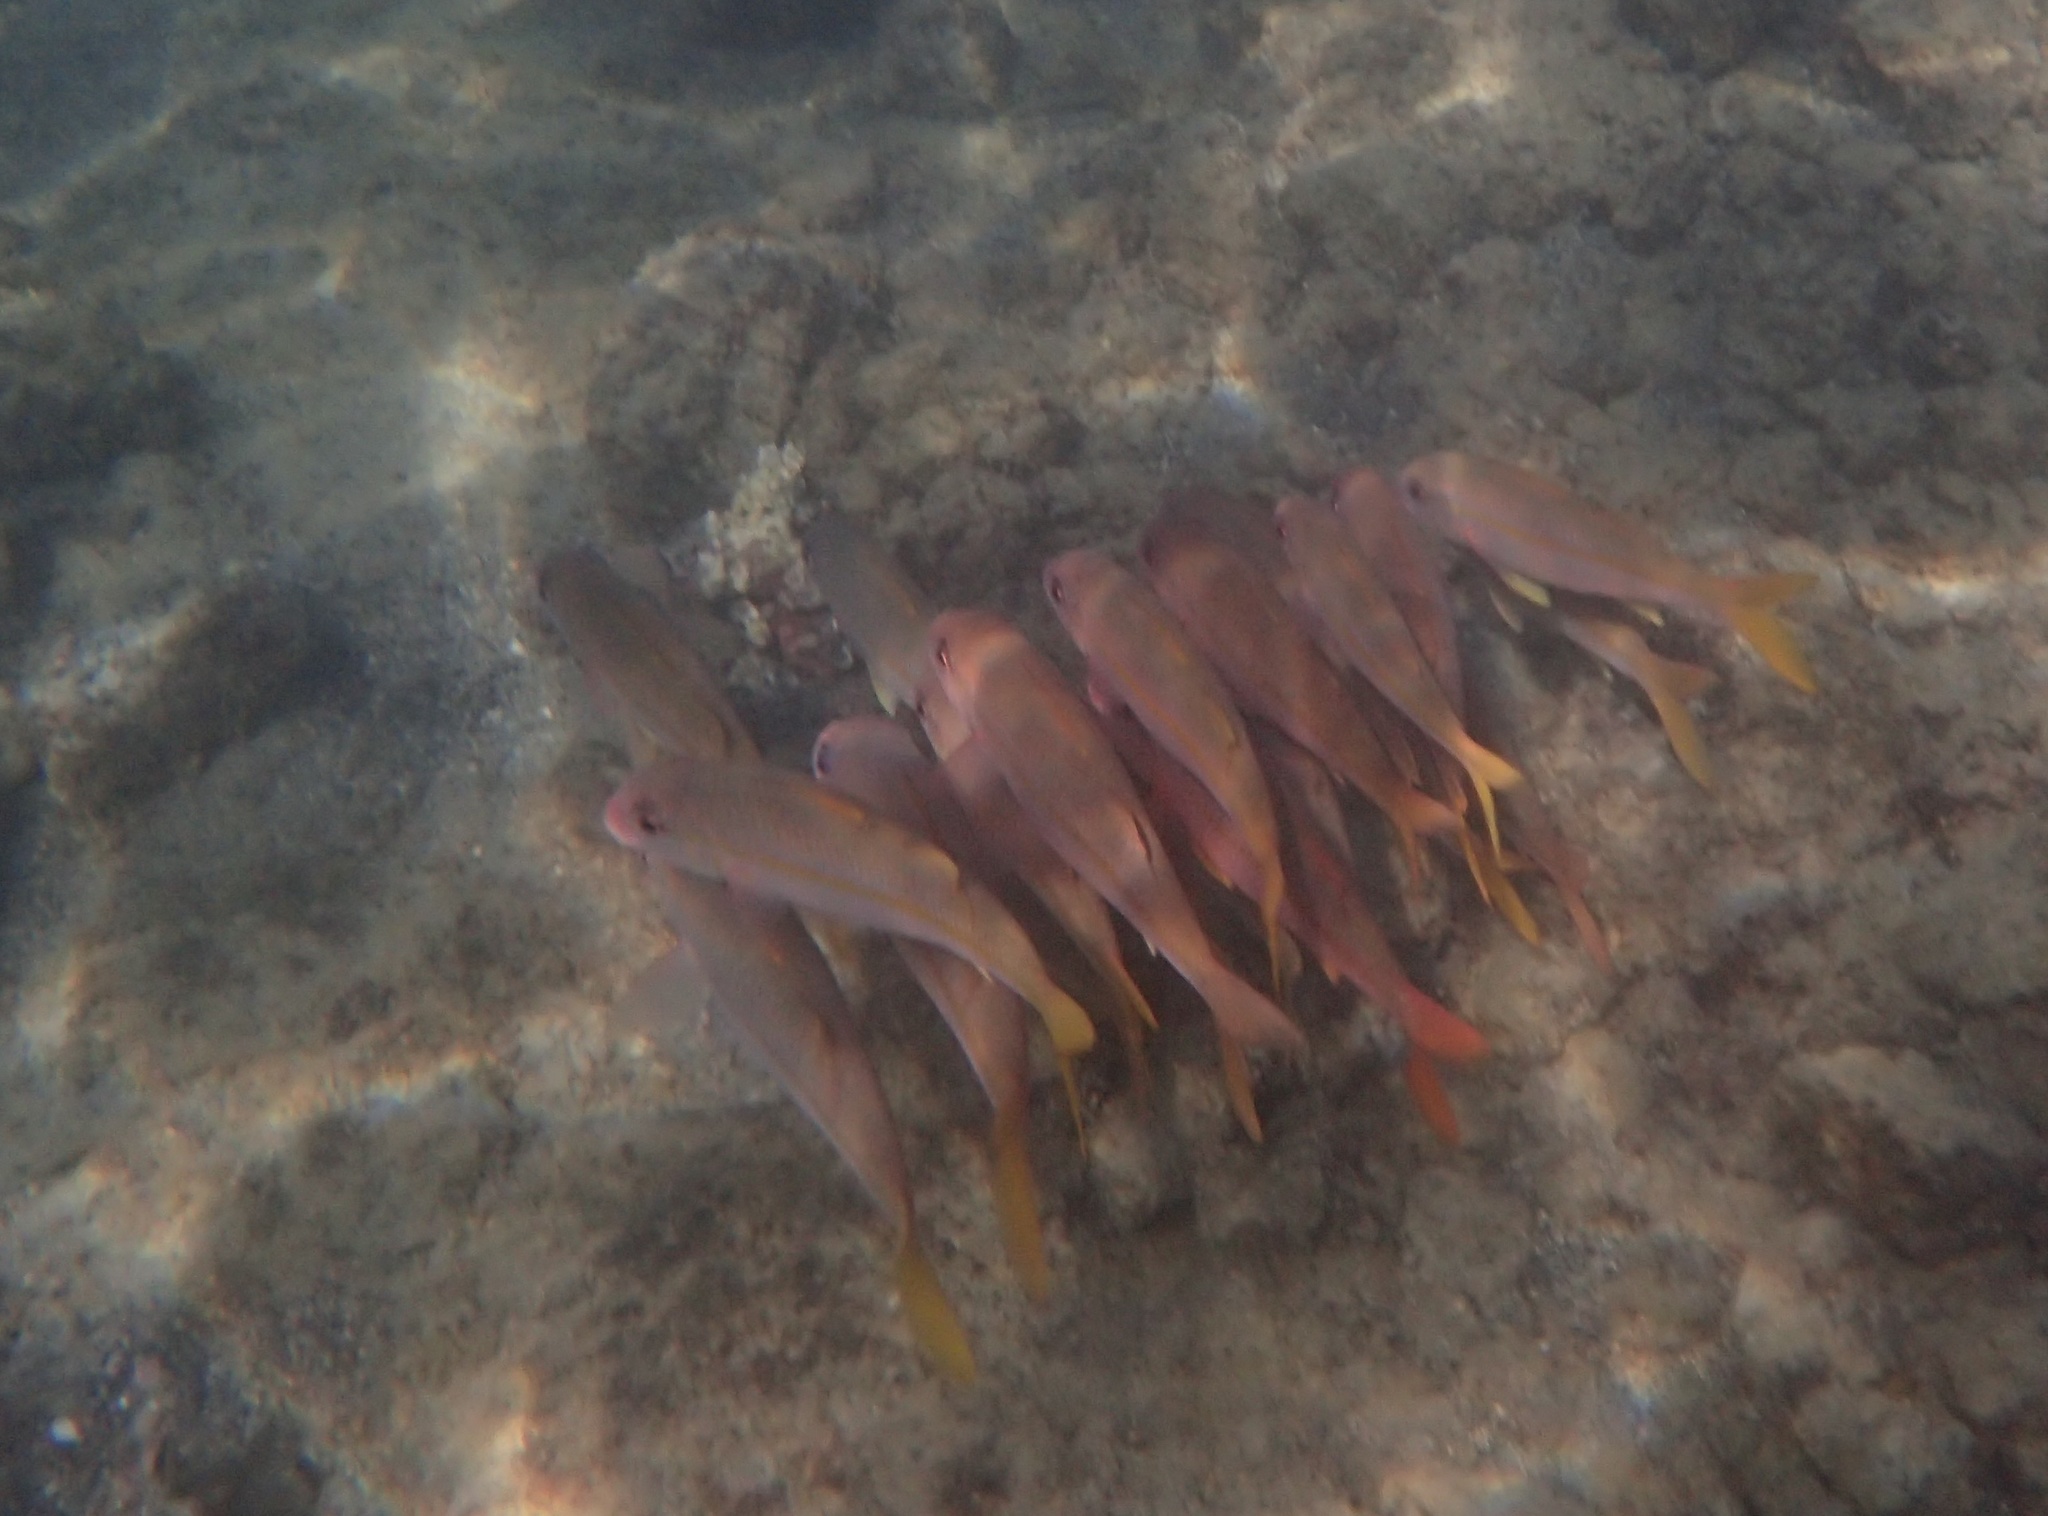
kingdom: Animalia
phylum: Chordata
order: Perciformes
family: Mullidae
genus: Mulloidichthys
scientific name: Mulloidichthys vanicolensis
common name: Yellowfin goatfish
